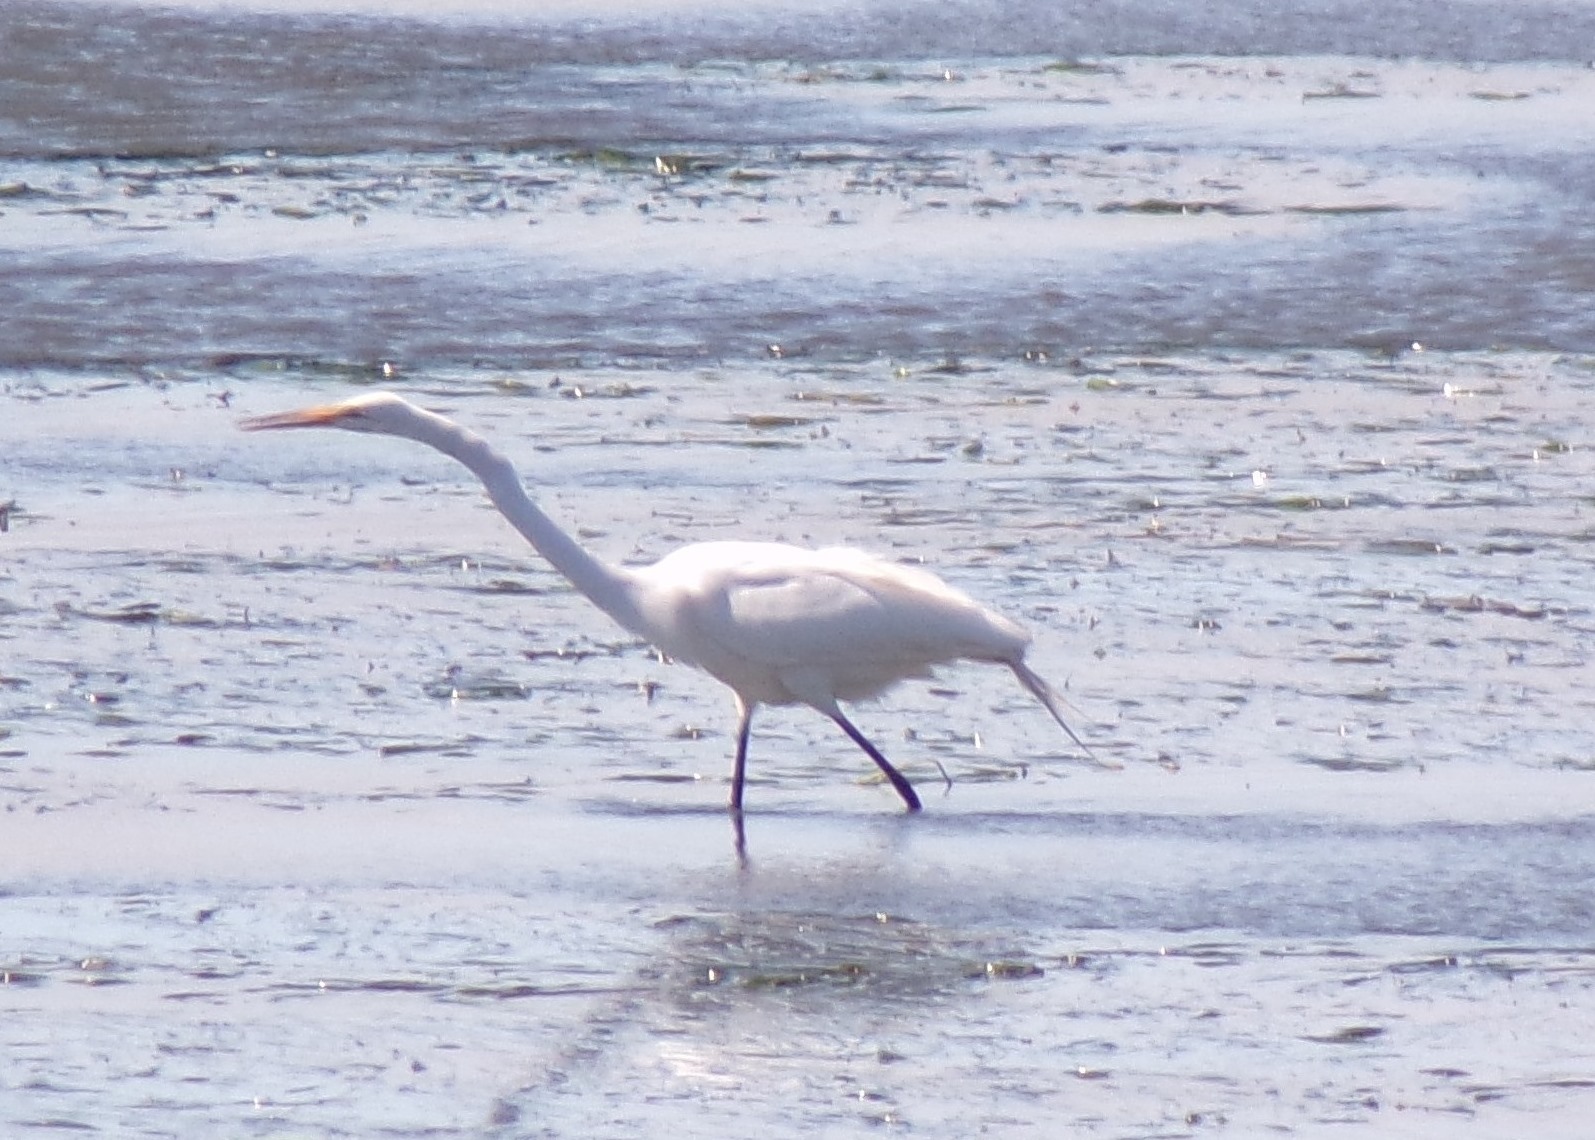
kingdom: Animalia
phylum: Chordata
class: Aves
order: Pelecaniformes
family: Ardeidae
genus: Ardea
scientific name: Ardea alba
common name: Great egret
